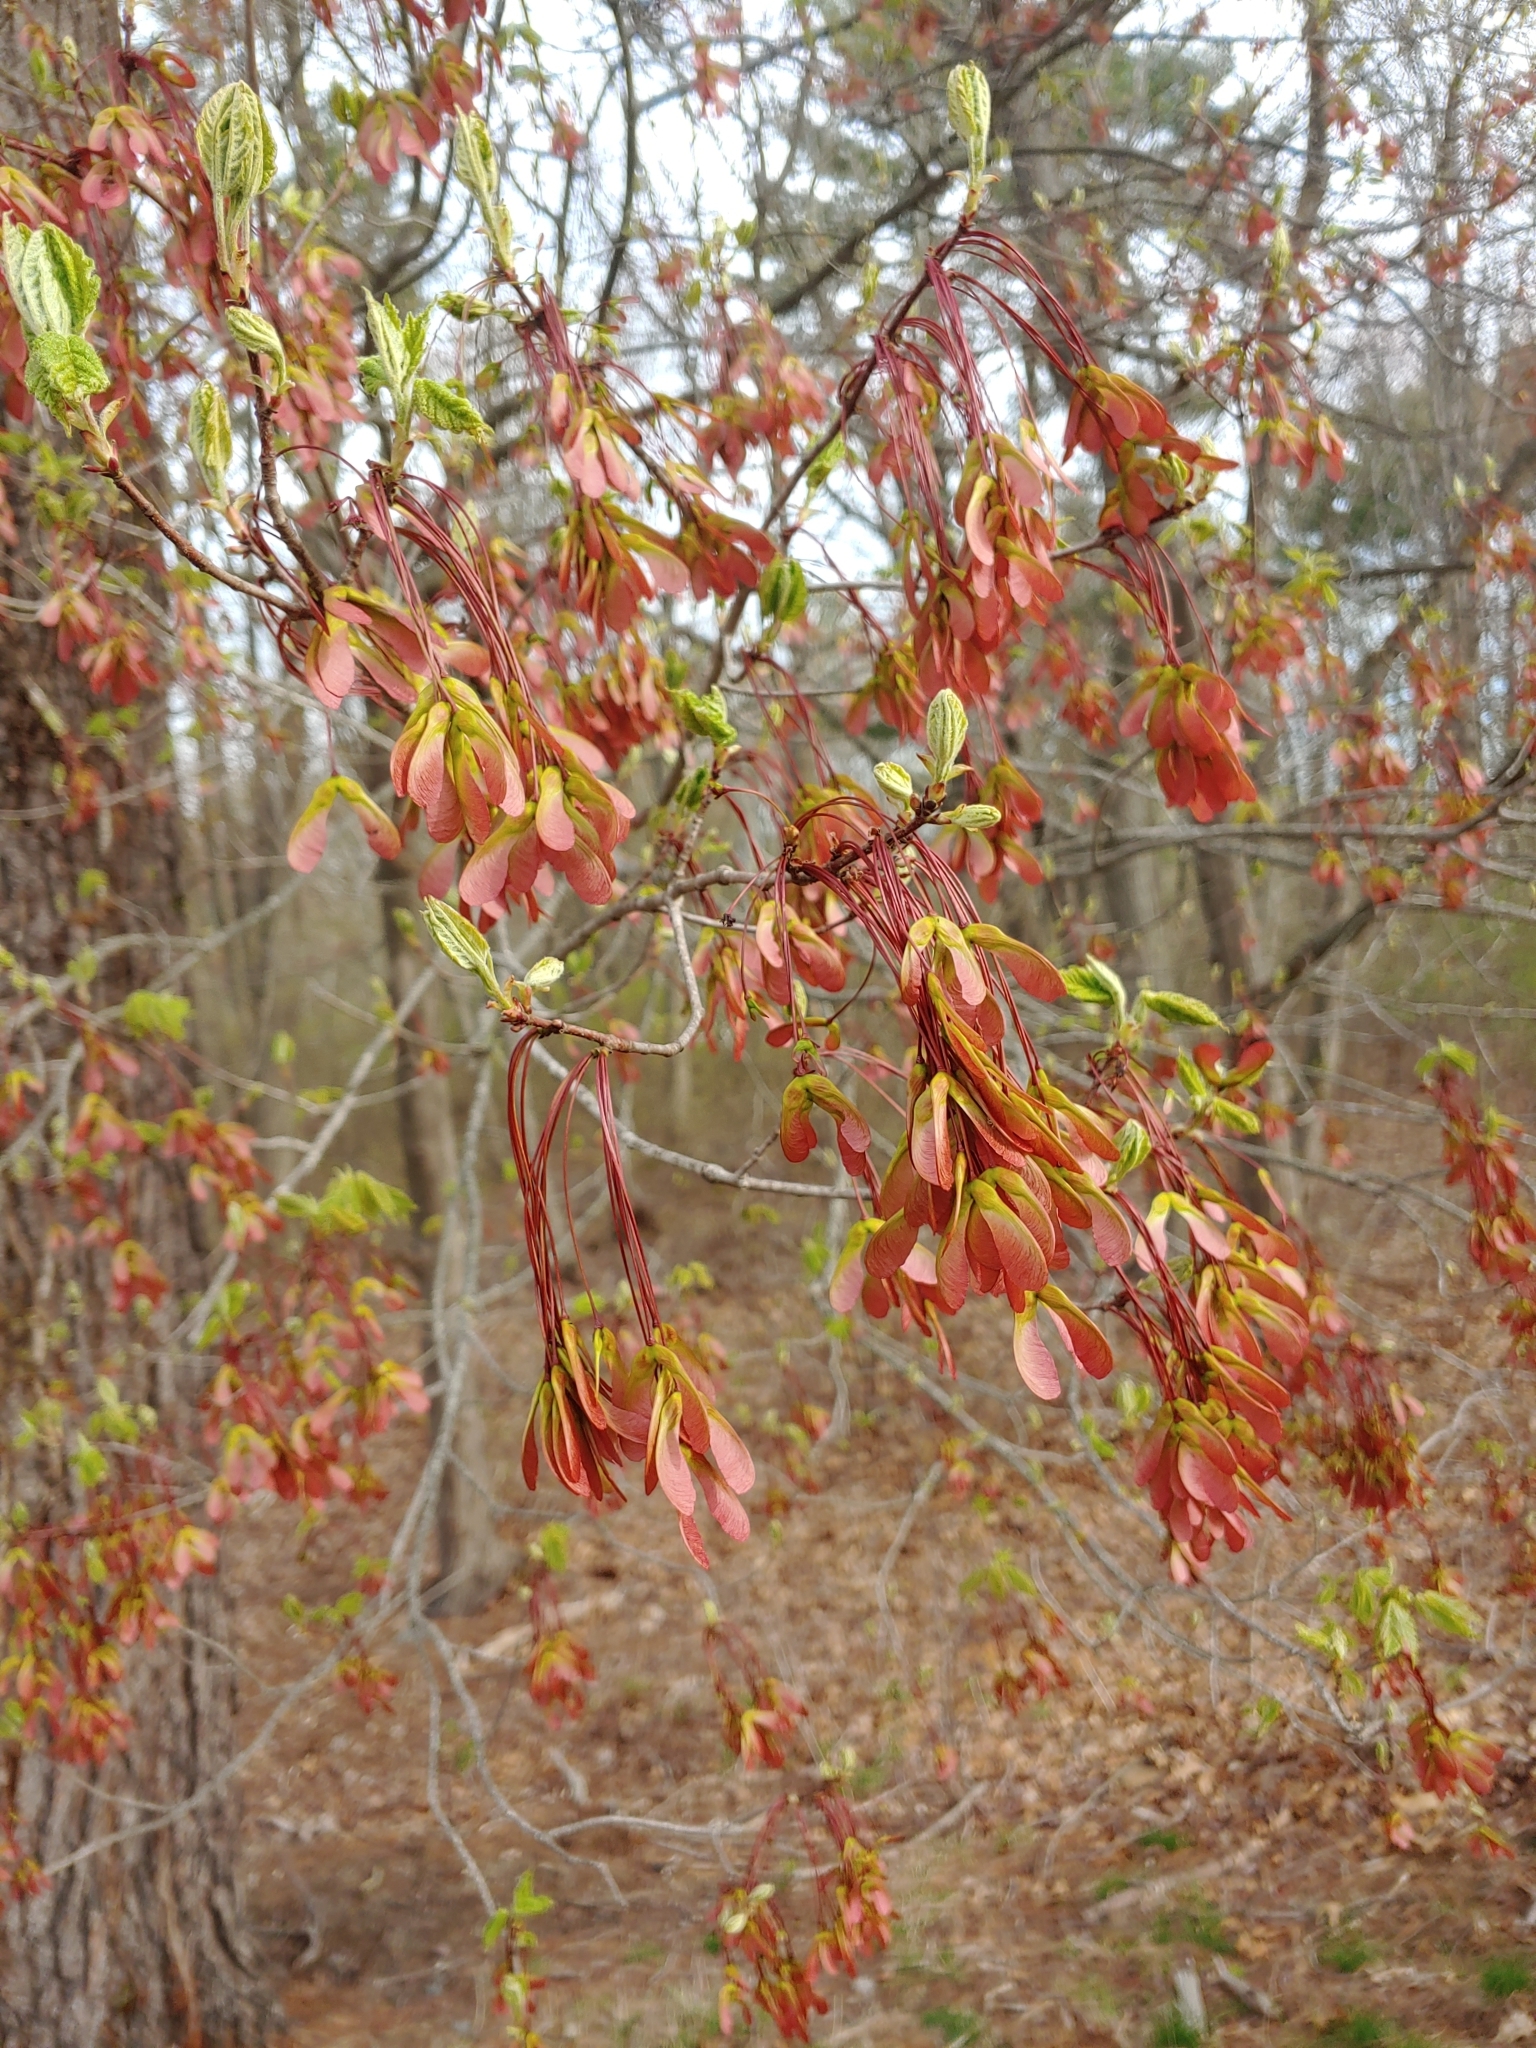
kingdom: Plantae
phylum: Tracheophyta
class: Magnoliopsida
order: Sapindales
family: Sapindaceae
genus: Acer
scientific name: Acer rubrum
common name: Red maple
